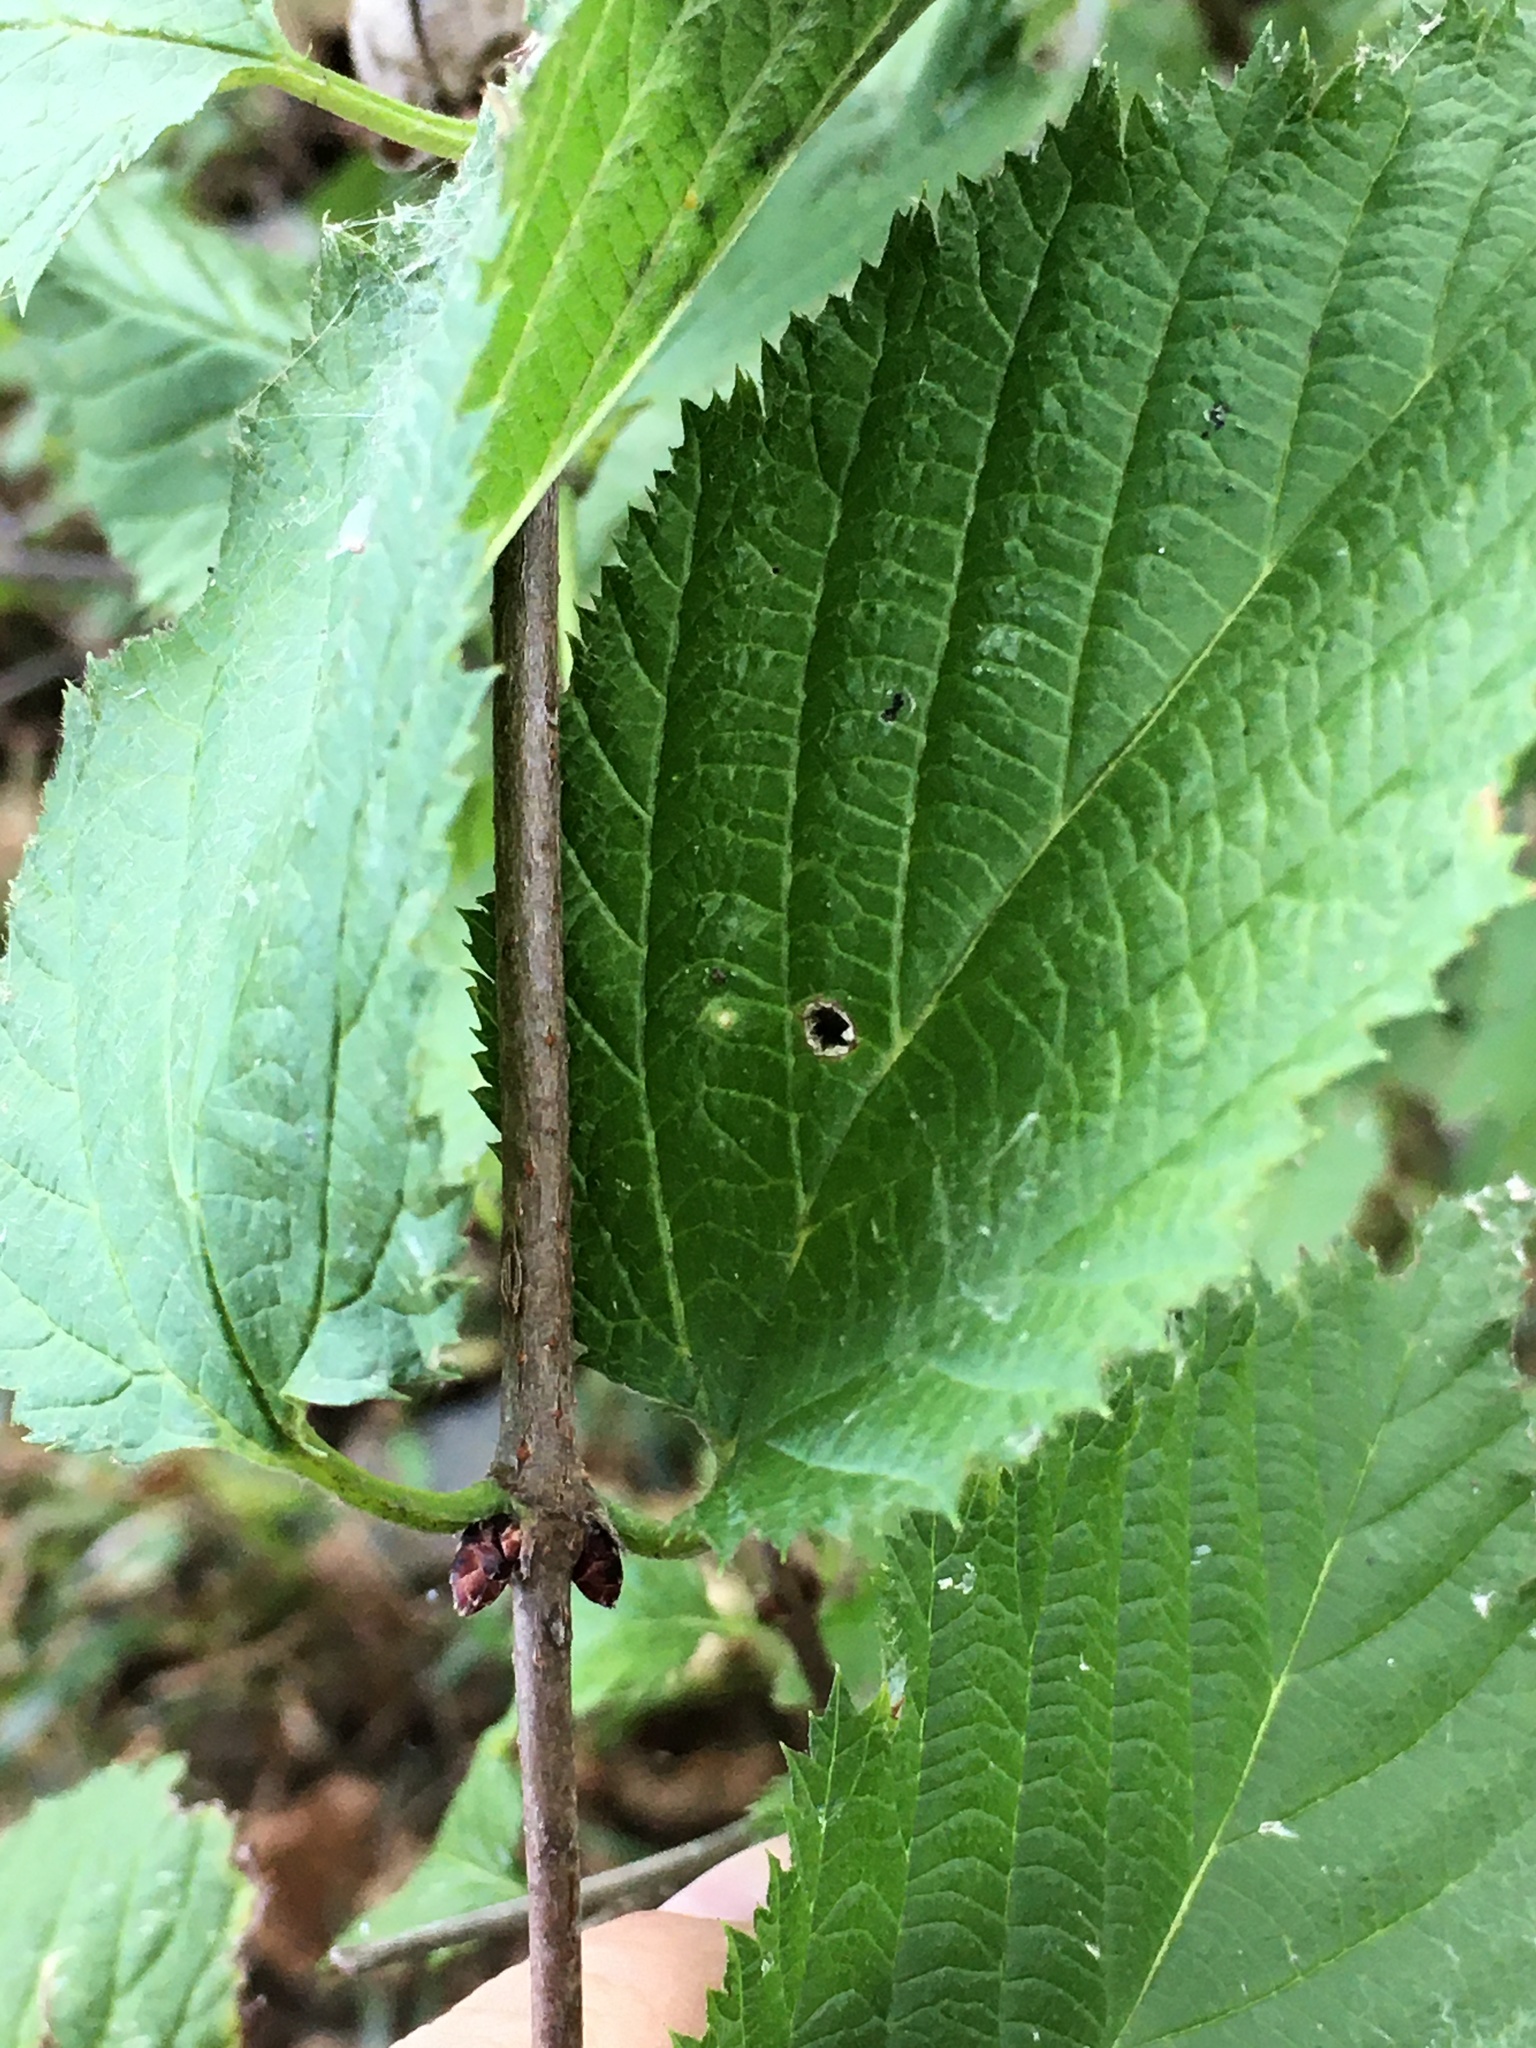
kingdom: Plantae
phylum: Tracheophyta
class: Magnoliopsida
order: Rosales
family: Rosaceae
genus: Rhodotypos
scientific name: Rhodotypos scandens
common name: Jetbead
